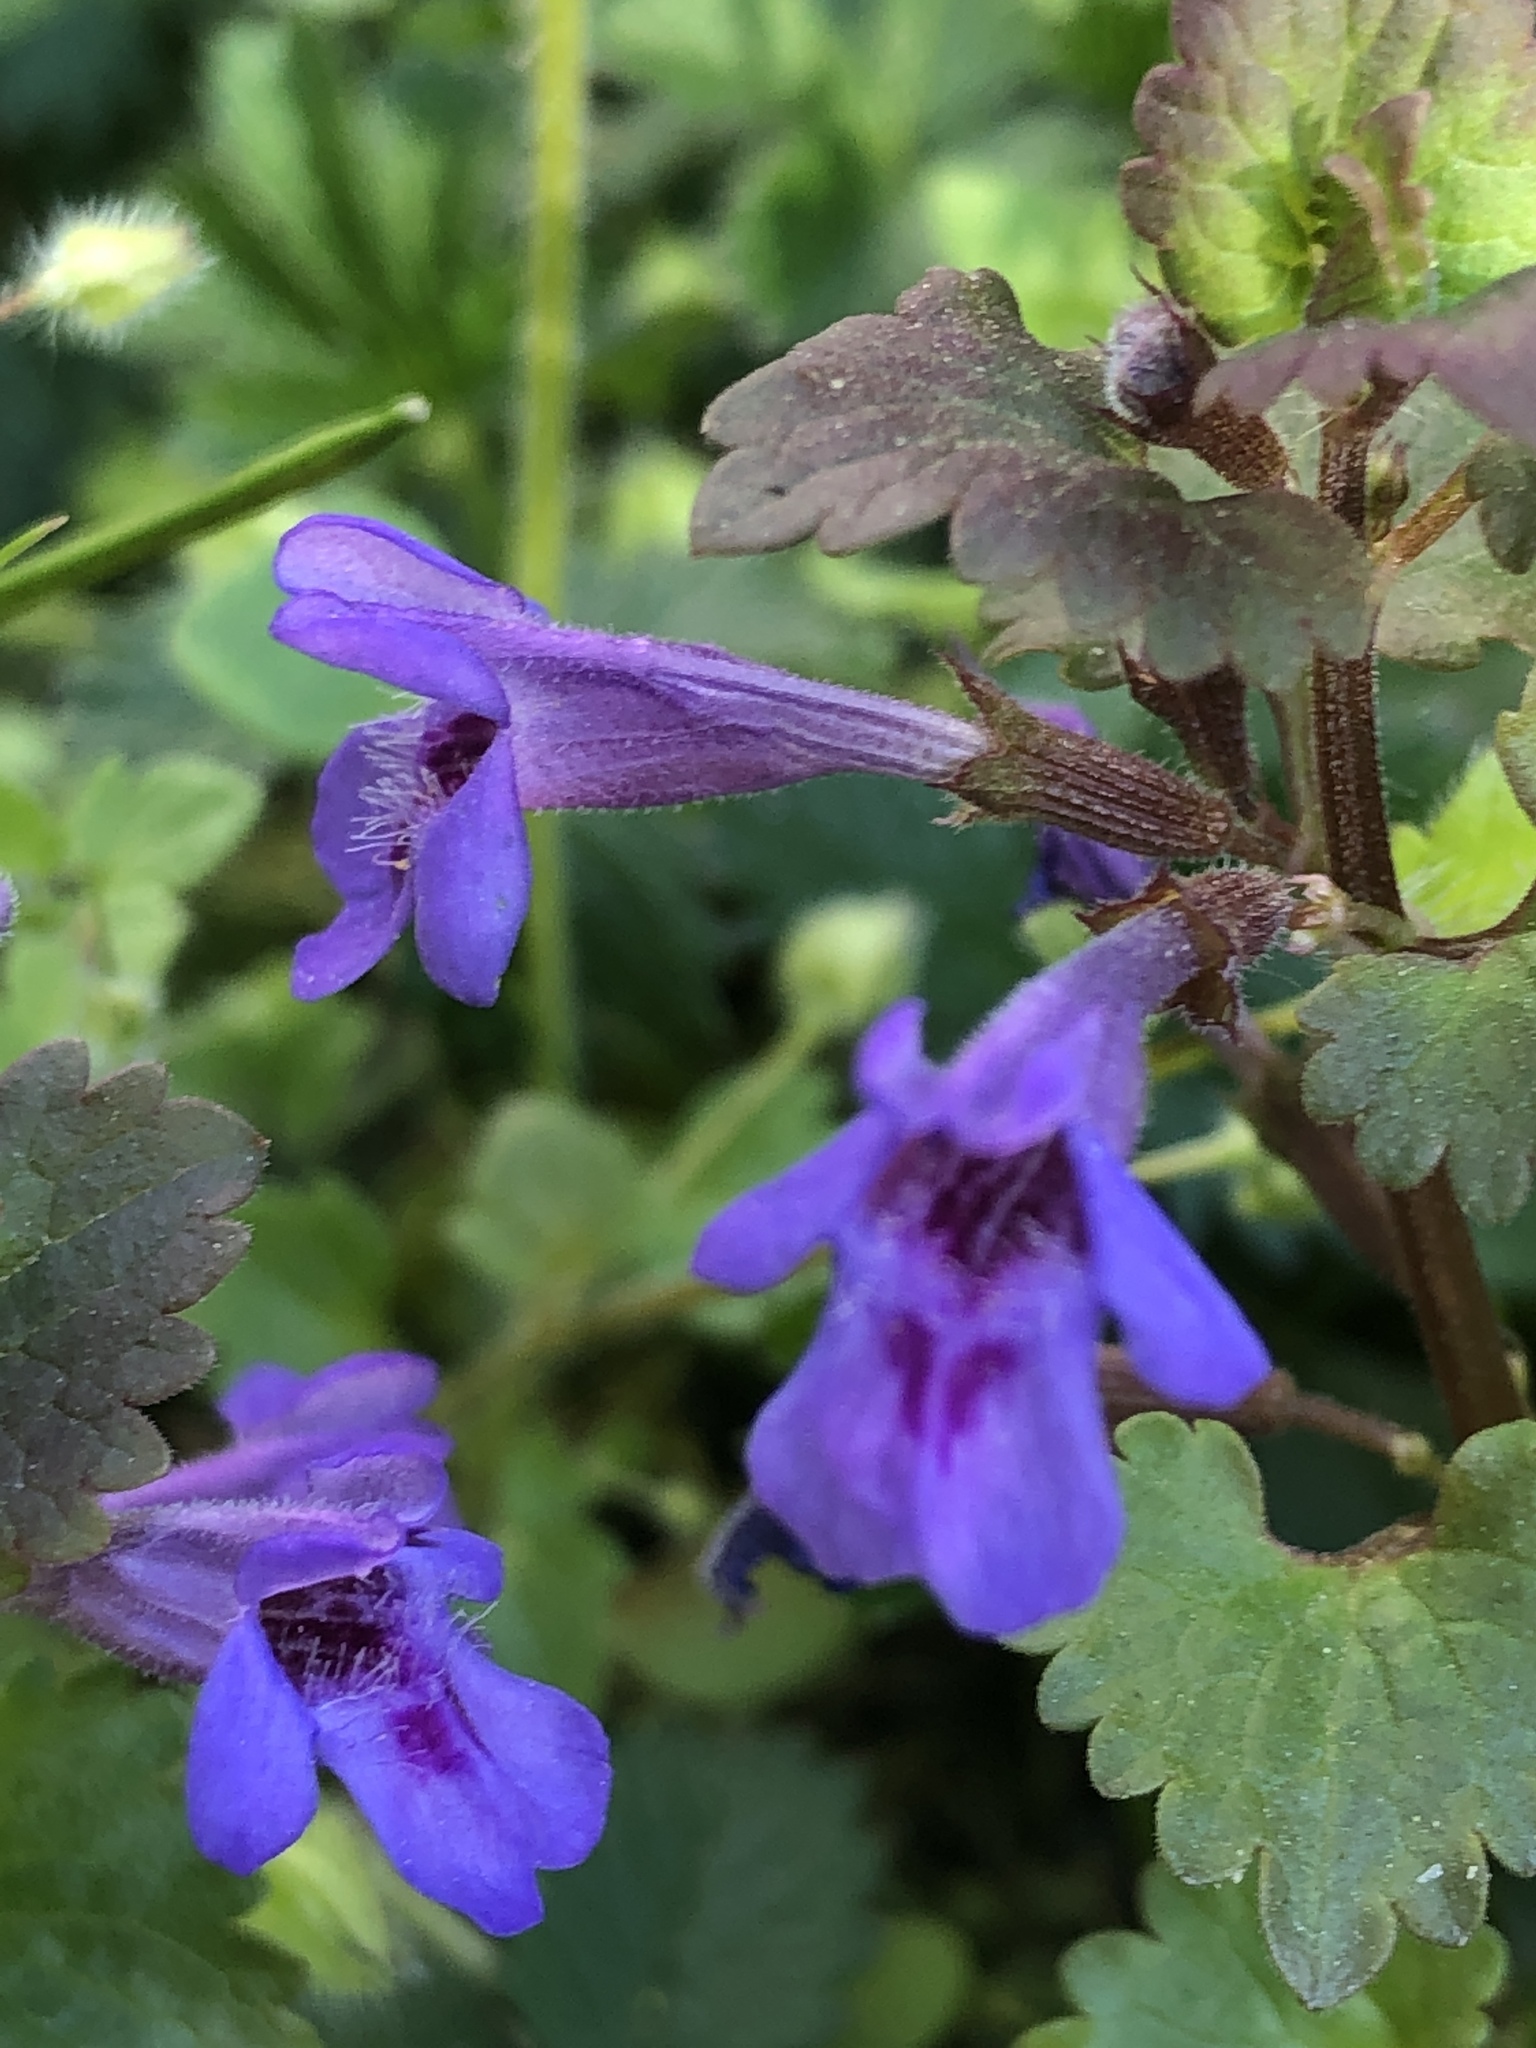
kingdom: Plantae
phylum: Tracheophyta
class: Magnoliopsida
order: Lamiales
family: Lamiaceae
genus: Glechoma
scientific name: Glechoma hederacea
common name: Ground ivy
